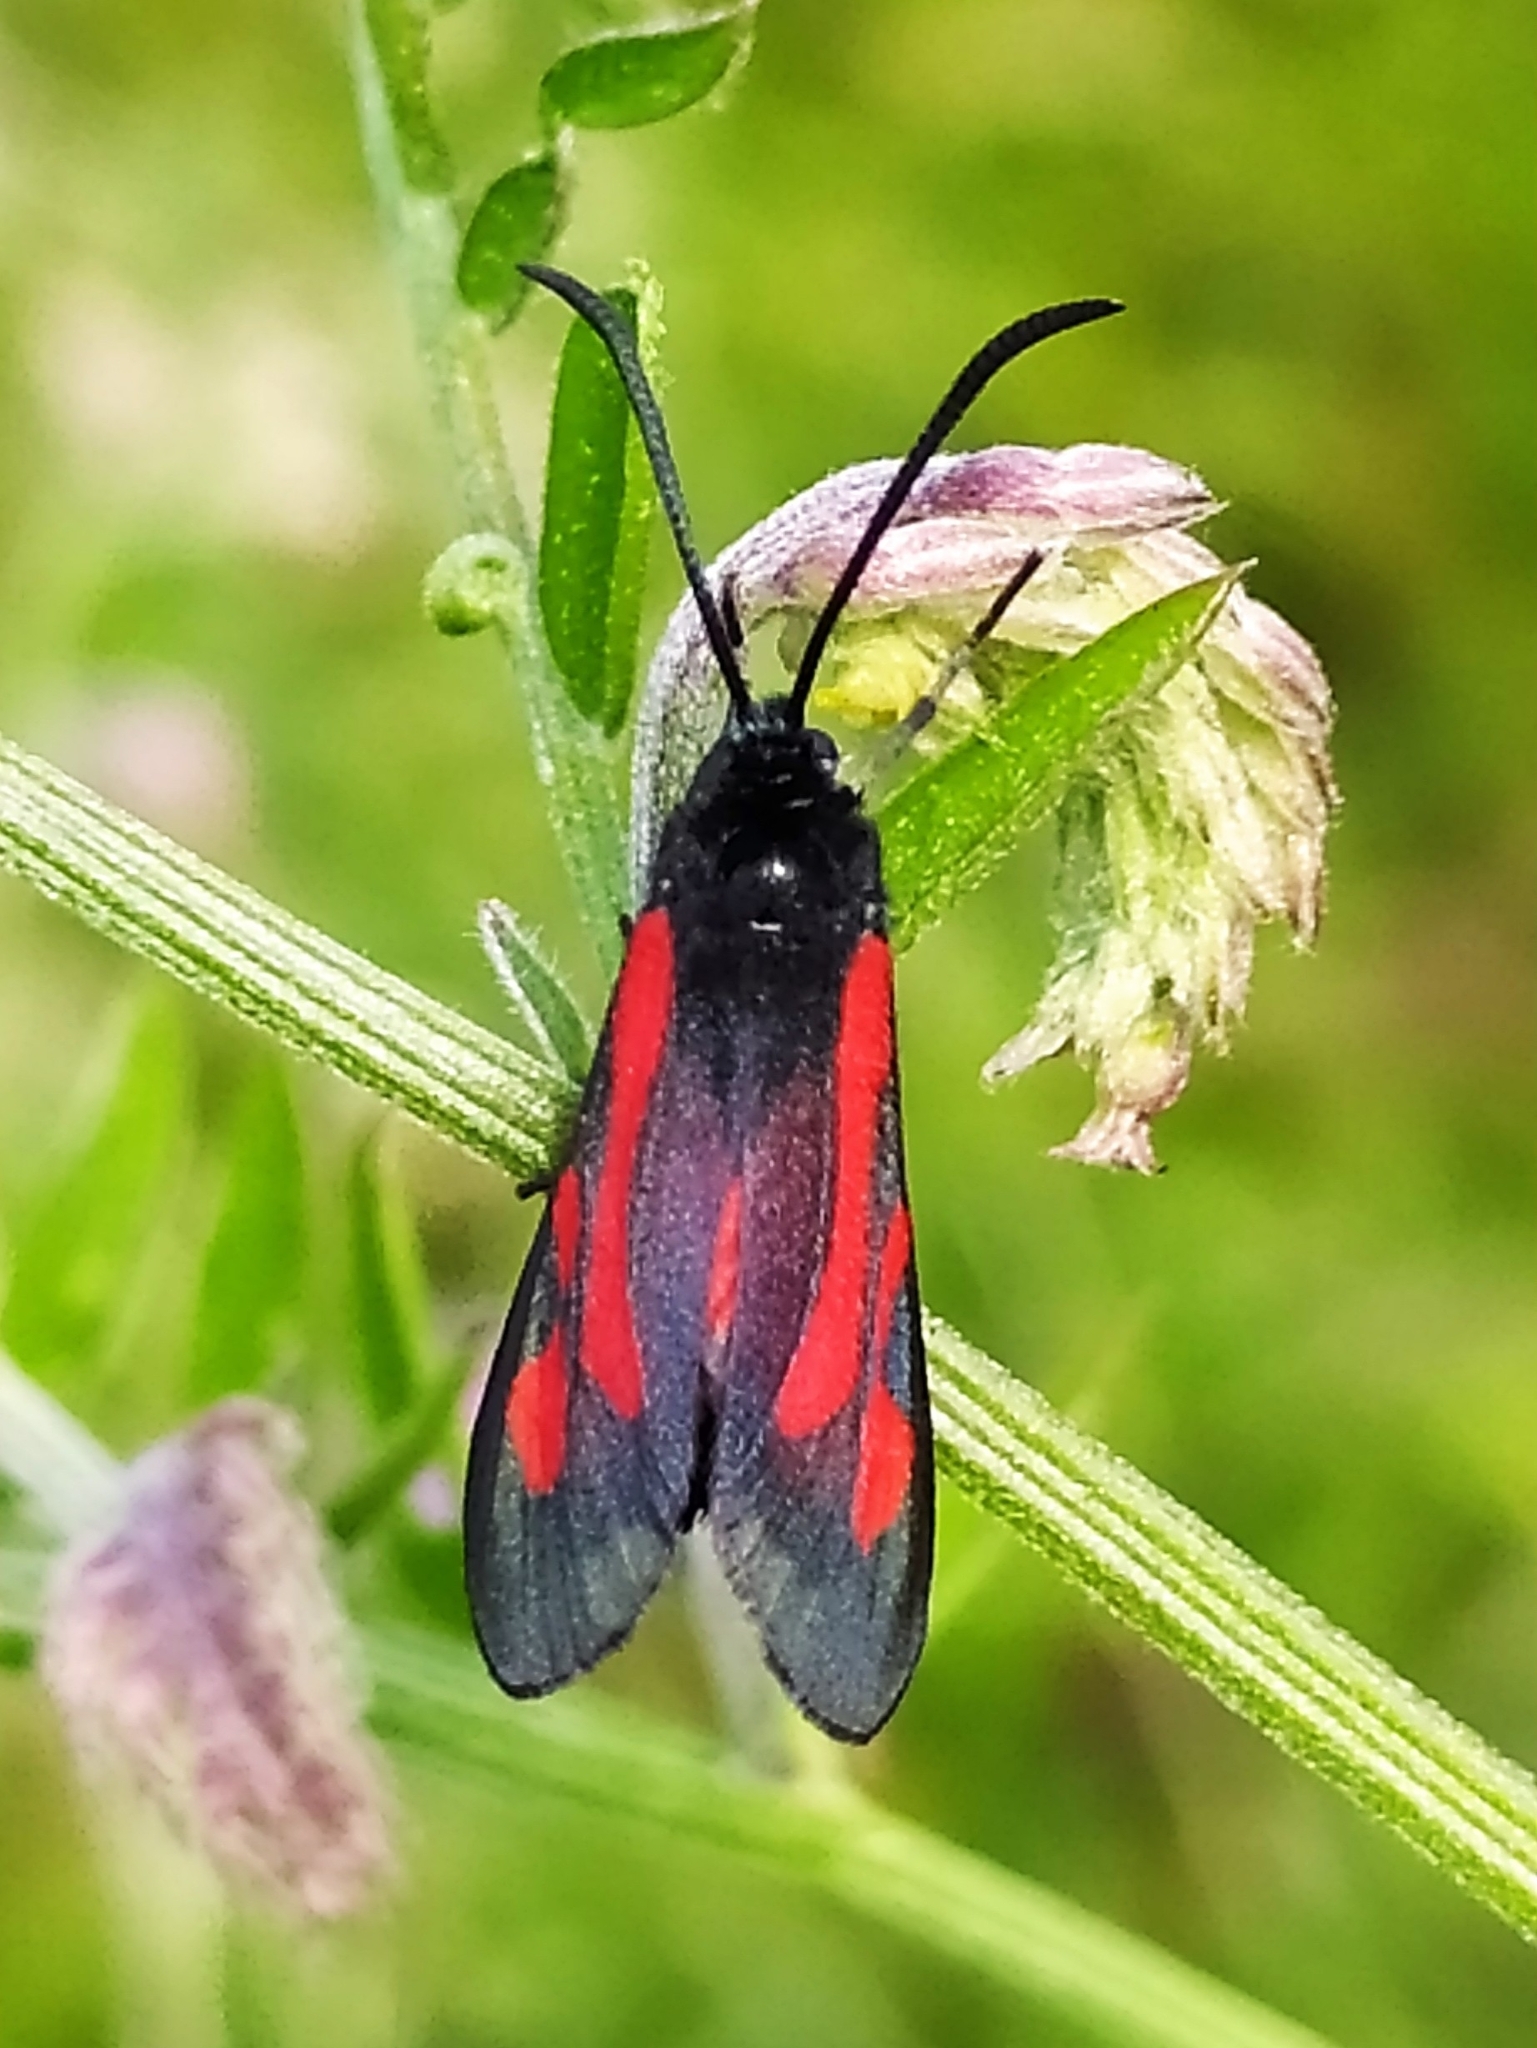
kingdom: Animalia
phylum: Arthropoda
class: Insecta
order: Lepidoptera
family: Zygaenidae
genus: Zygaena
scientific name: Zygaena osterodensis
